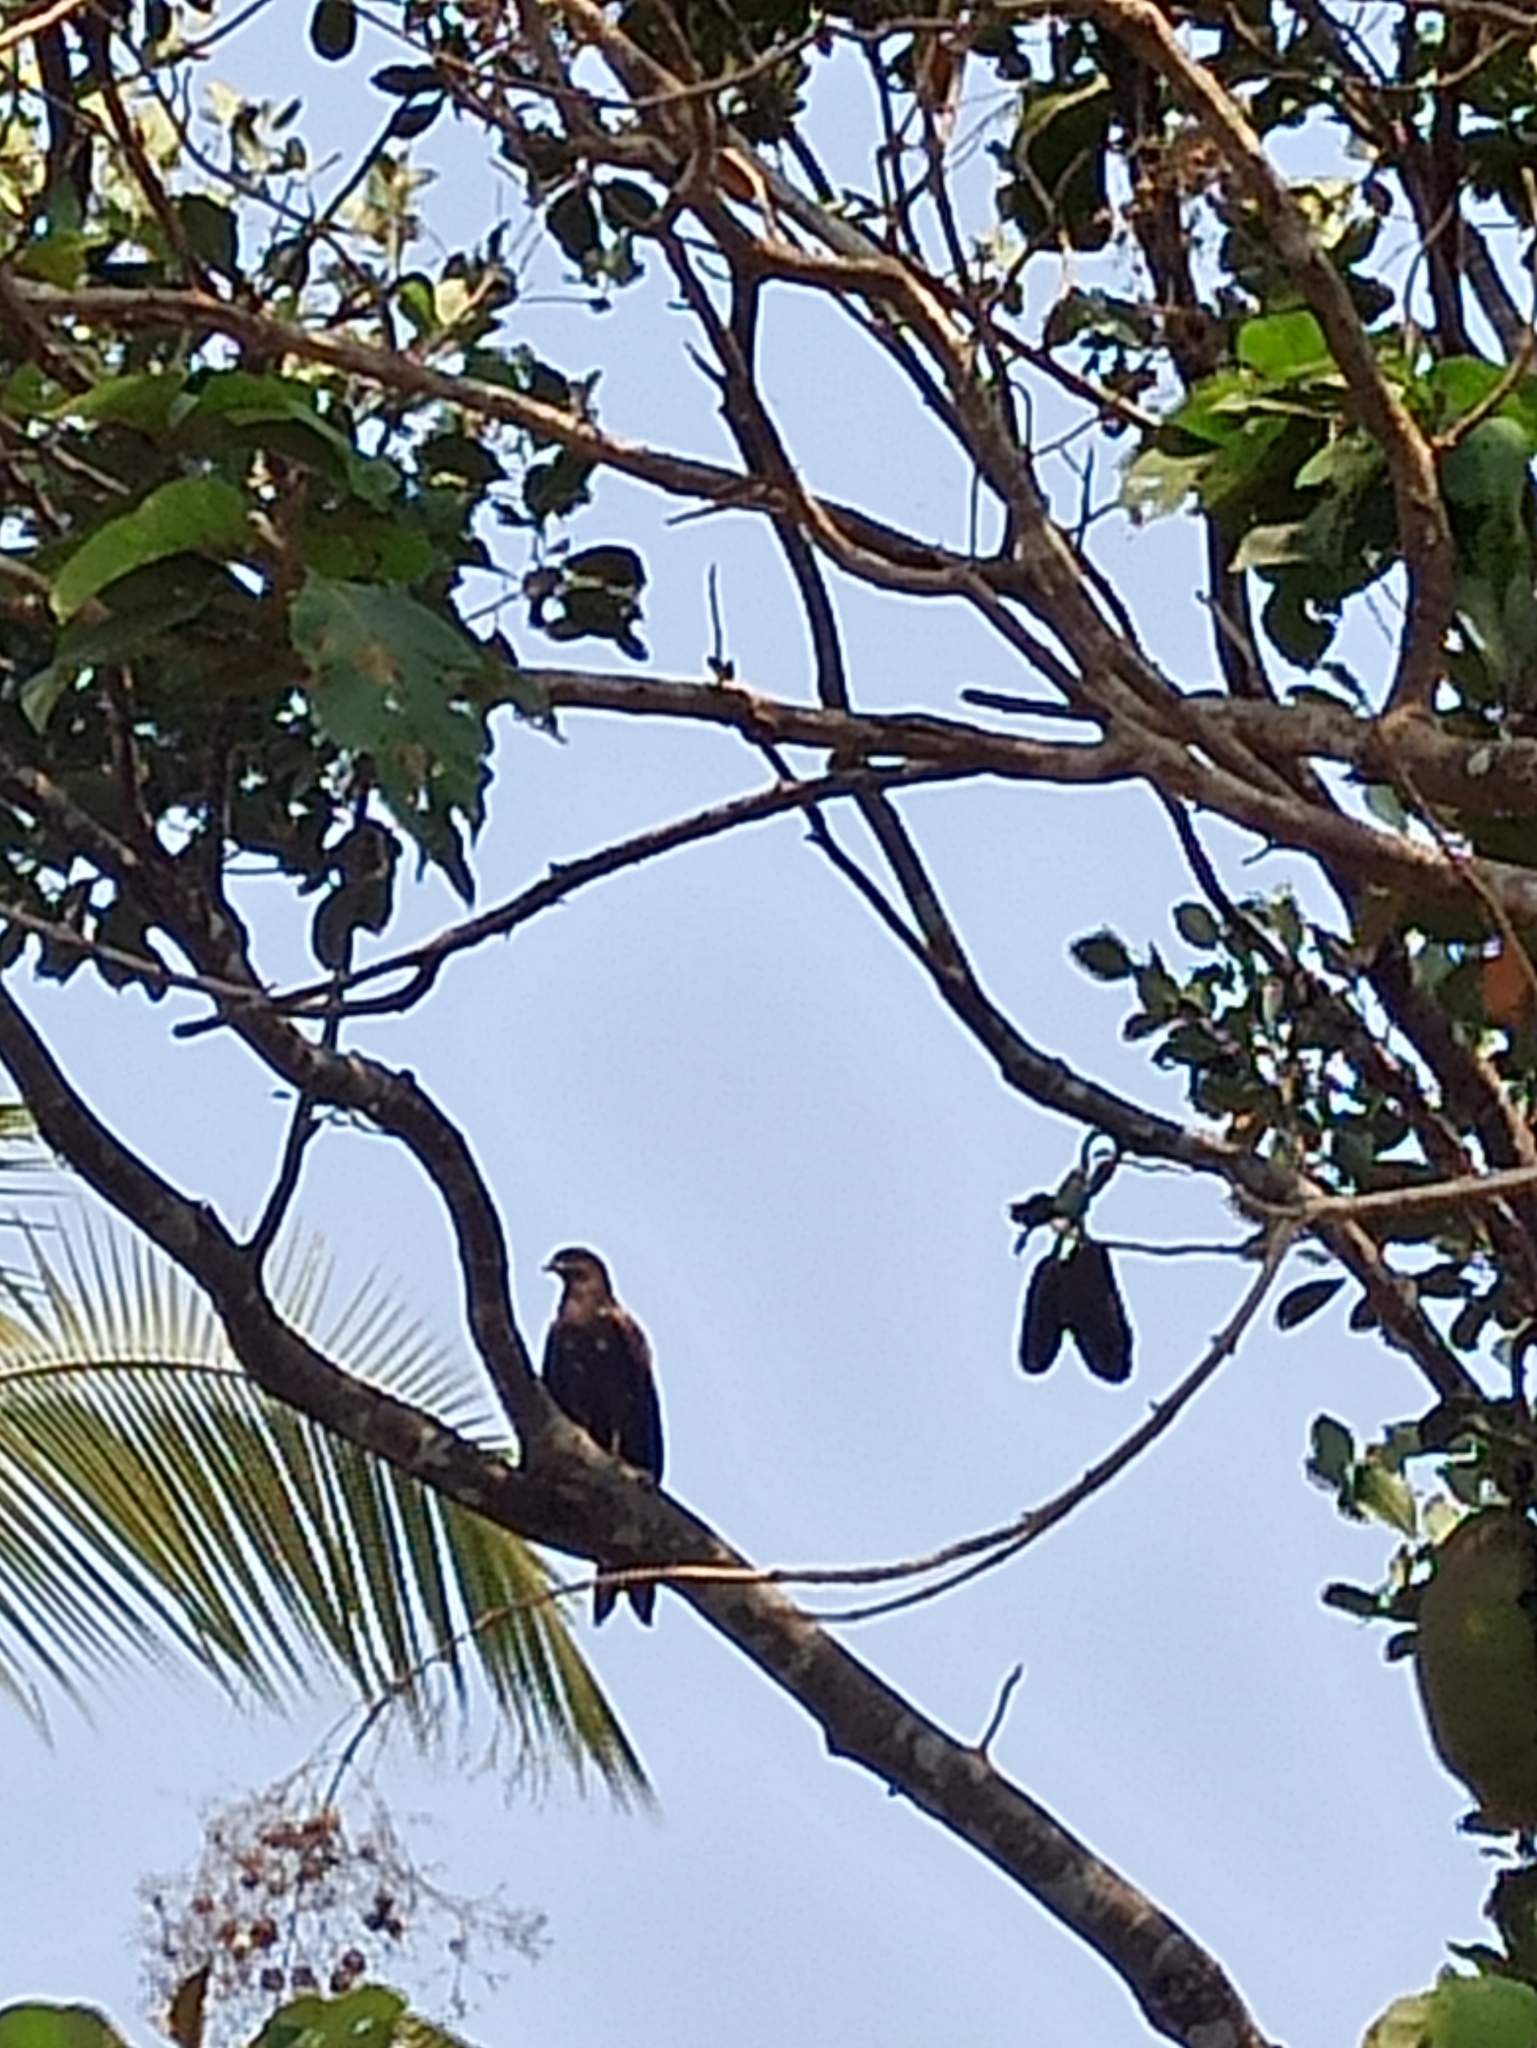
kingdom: Animalia
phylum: Chordata
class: Aves
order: Accipitriformes
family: Accipitridae
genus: Milvus
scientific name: Milvus migrans
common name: Black kite
